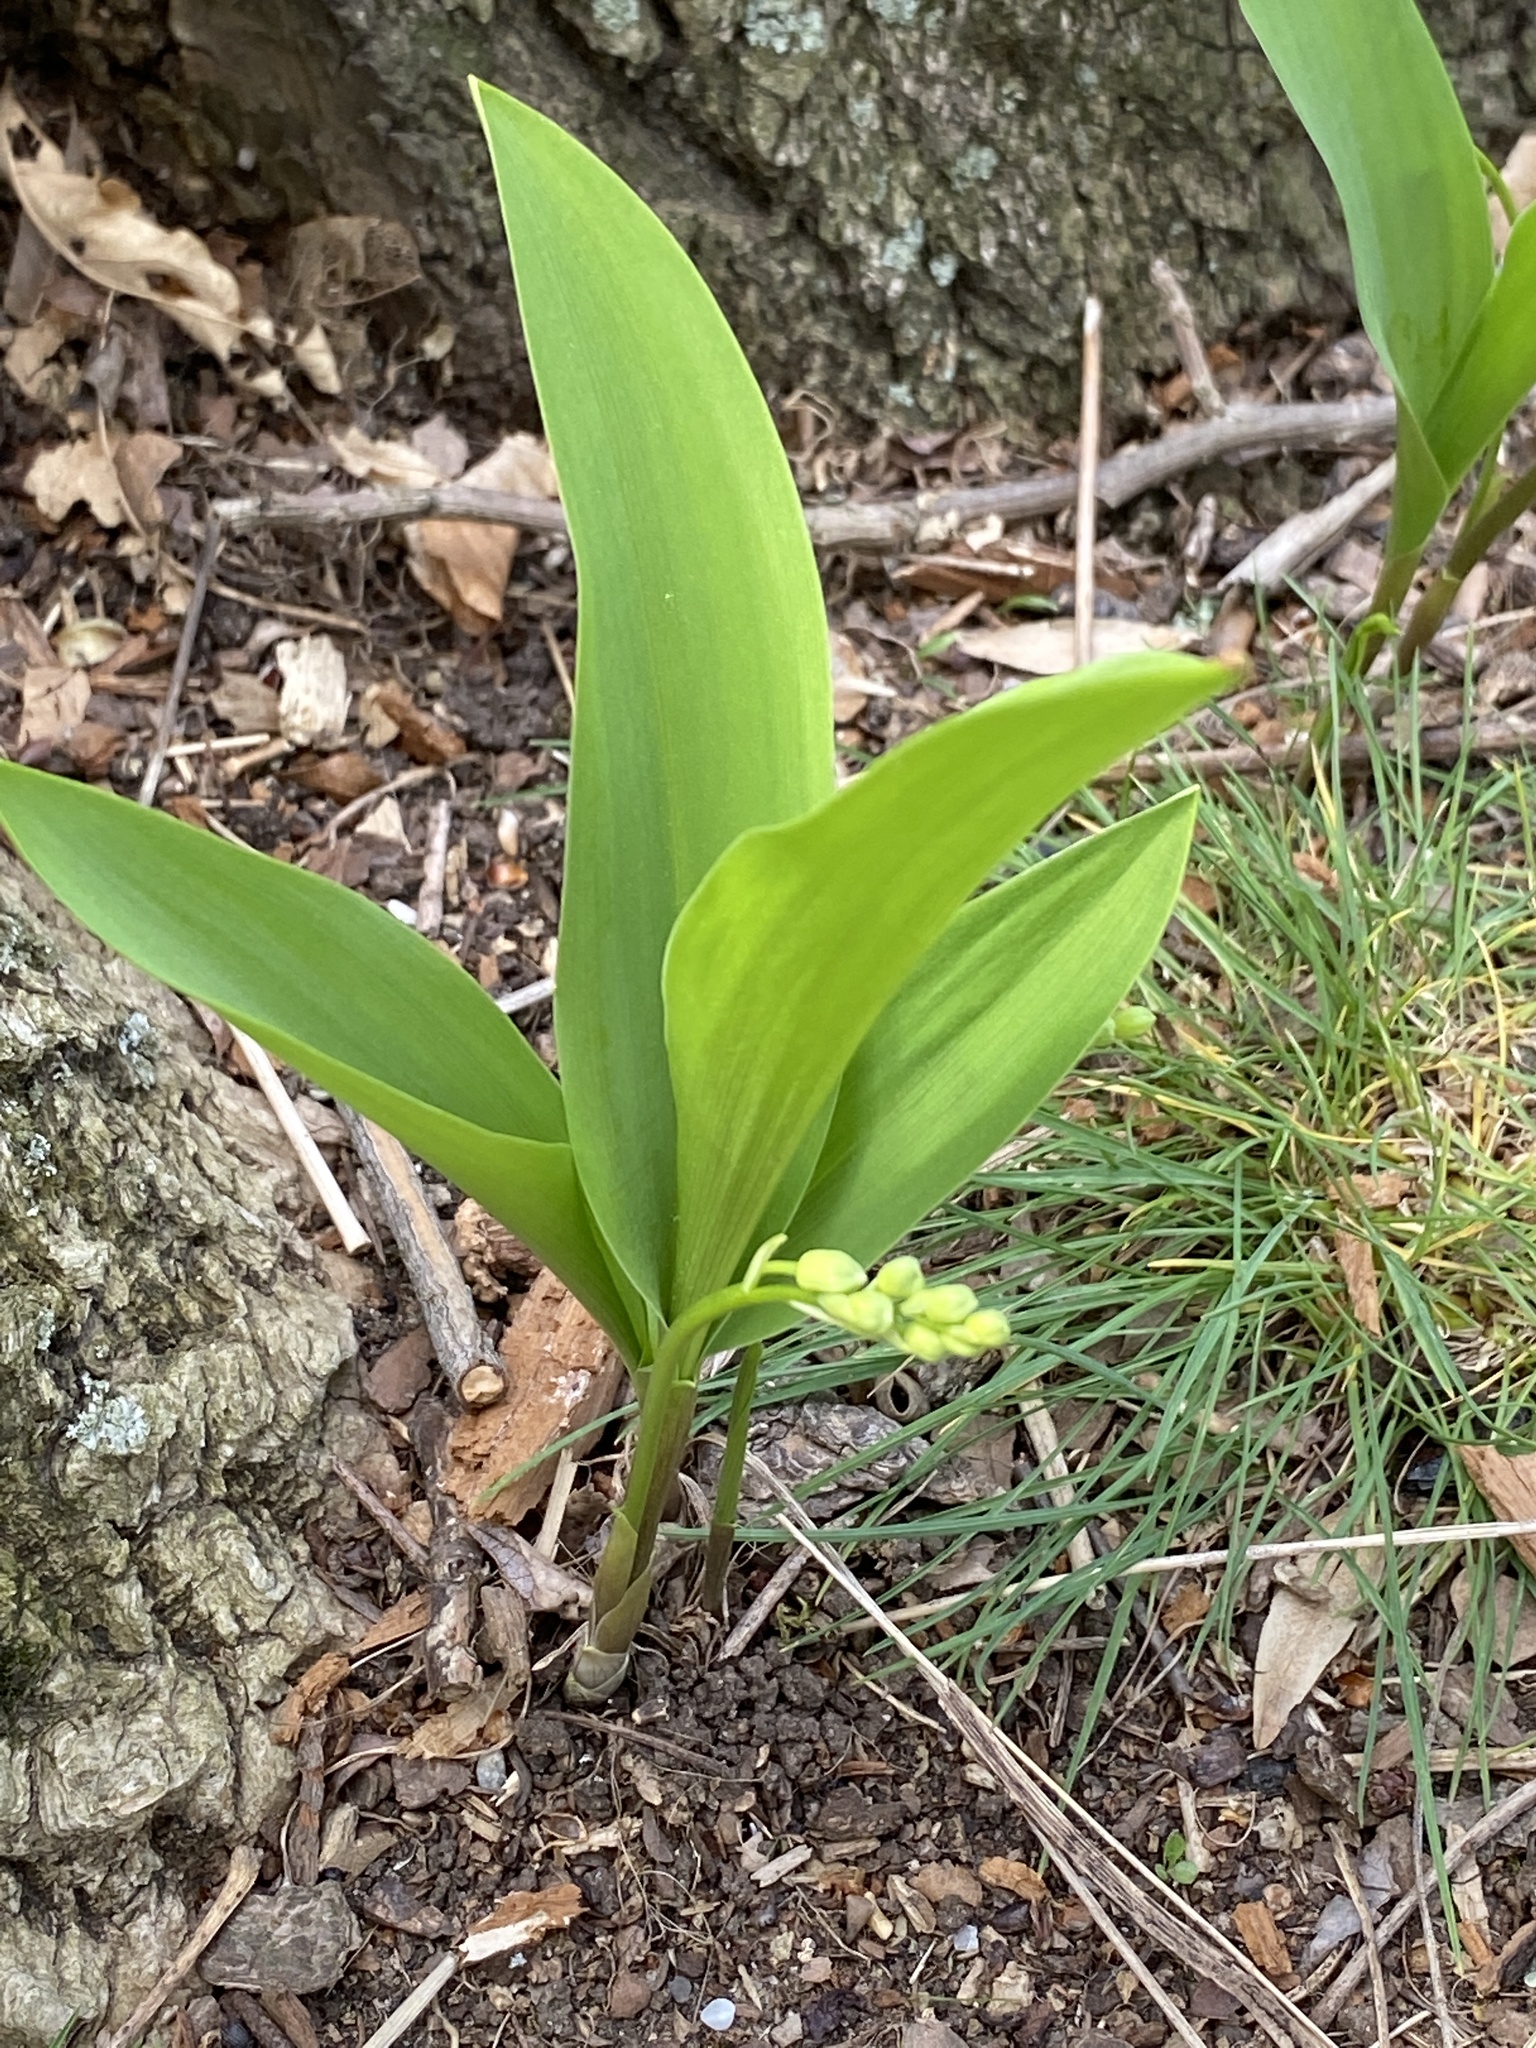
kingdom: Plantae
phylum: Tracheophyta
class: Liliopsida
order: Asparagales
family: Asparagaceae
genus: Convallaria
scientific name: Convallaria majalis
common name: Lily-of-the-valley
